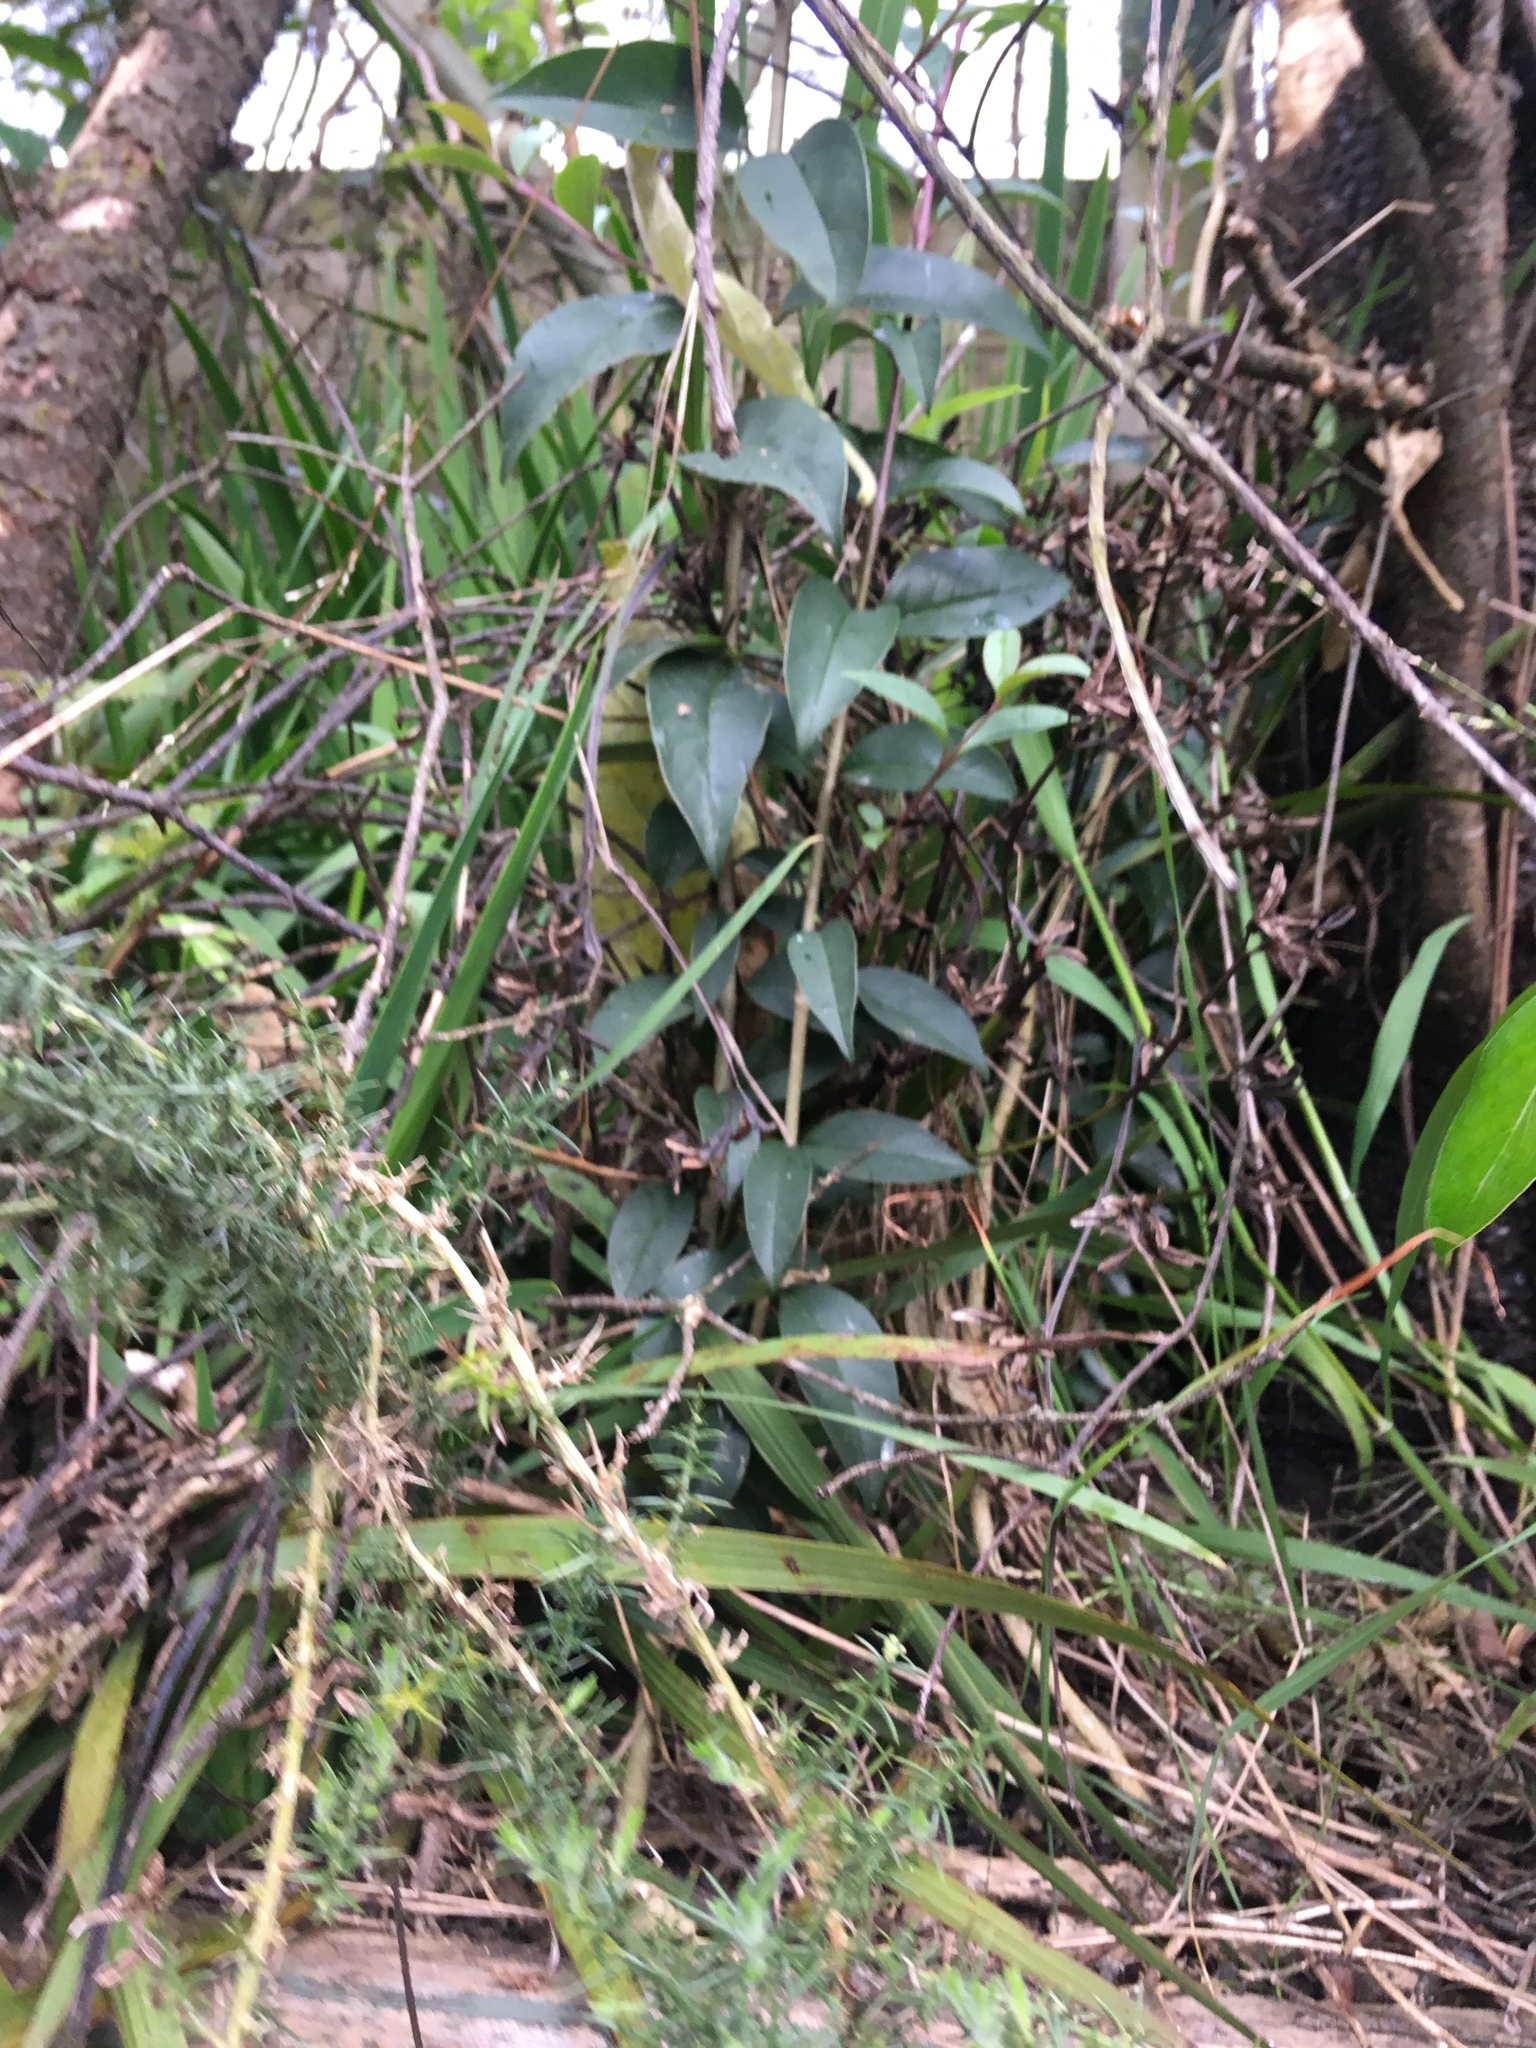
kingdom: Plantae
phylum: Tracheophyta
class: Magnoliopsida
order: Lamiales
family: Oleaceae
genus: Ligustrum
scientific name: Ligustrum lucidum
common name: Glossy privet
